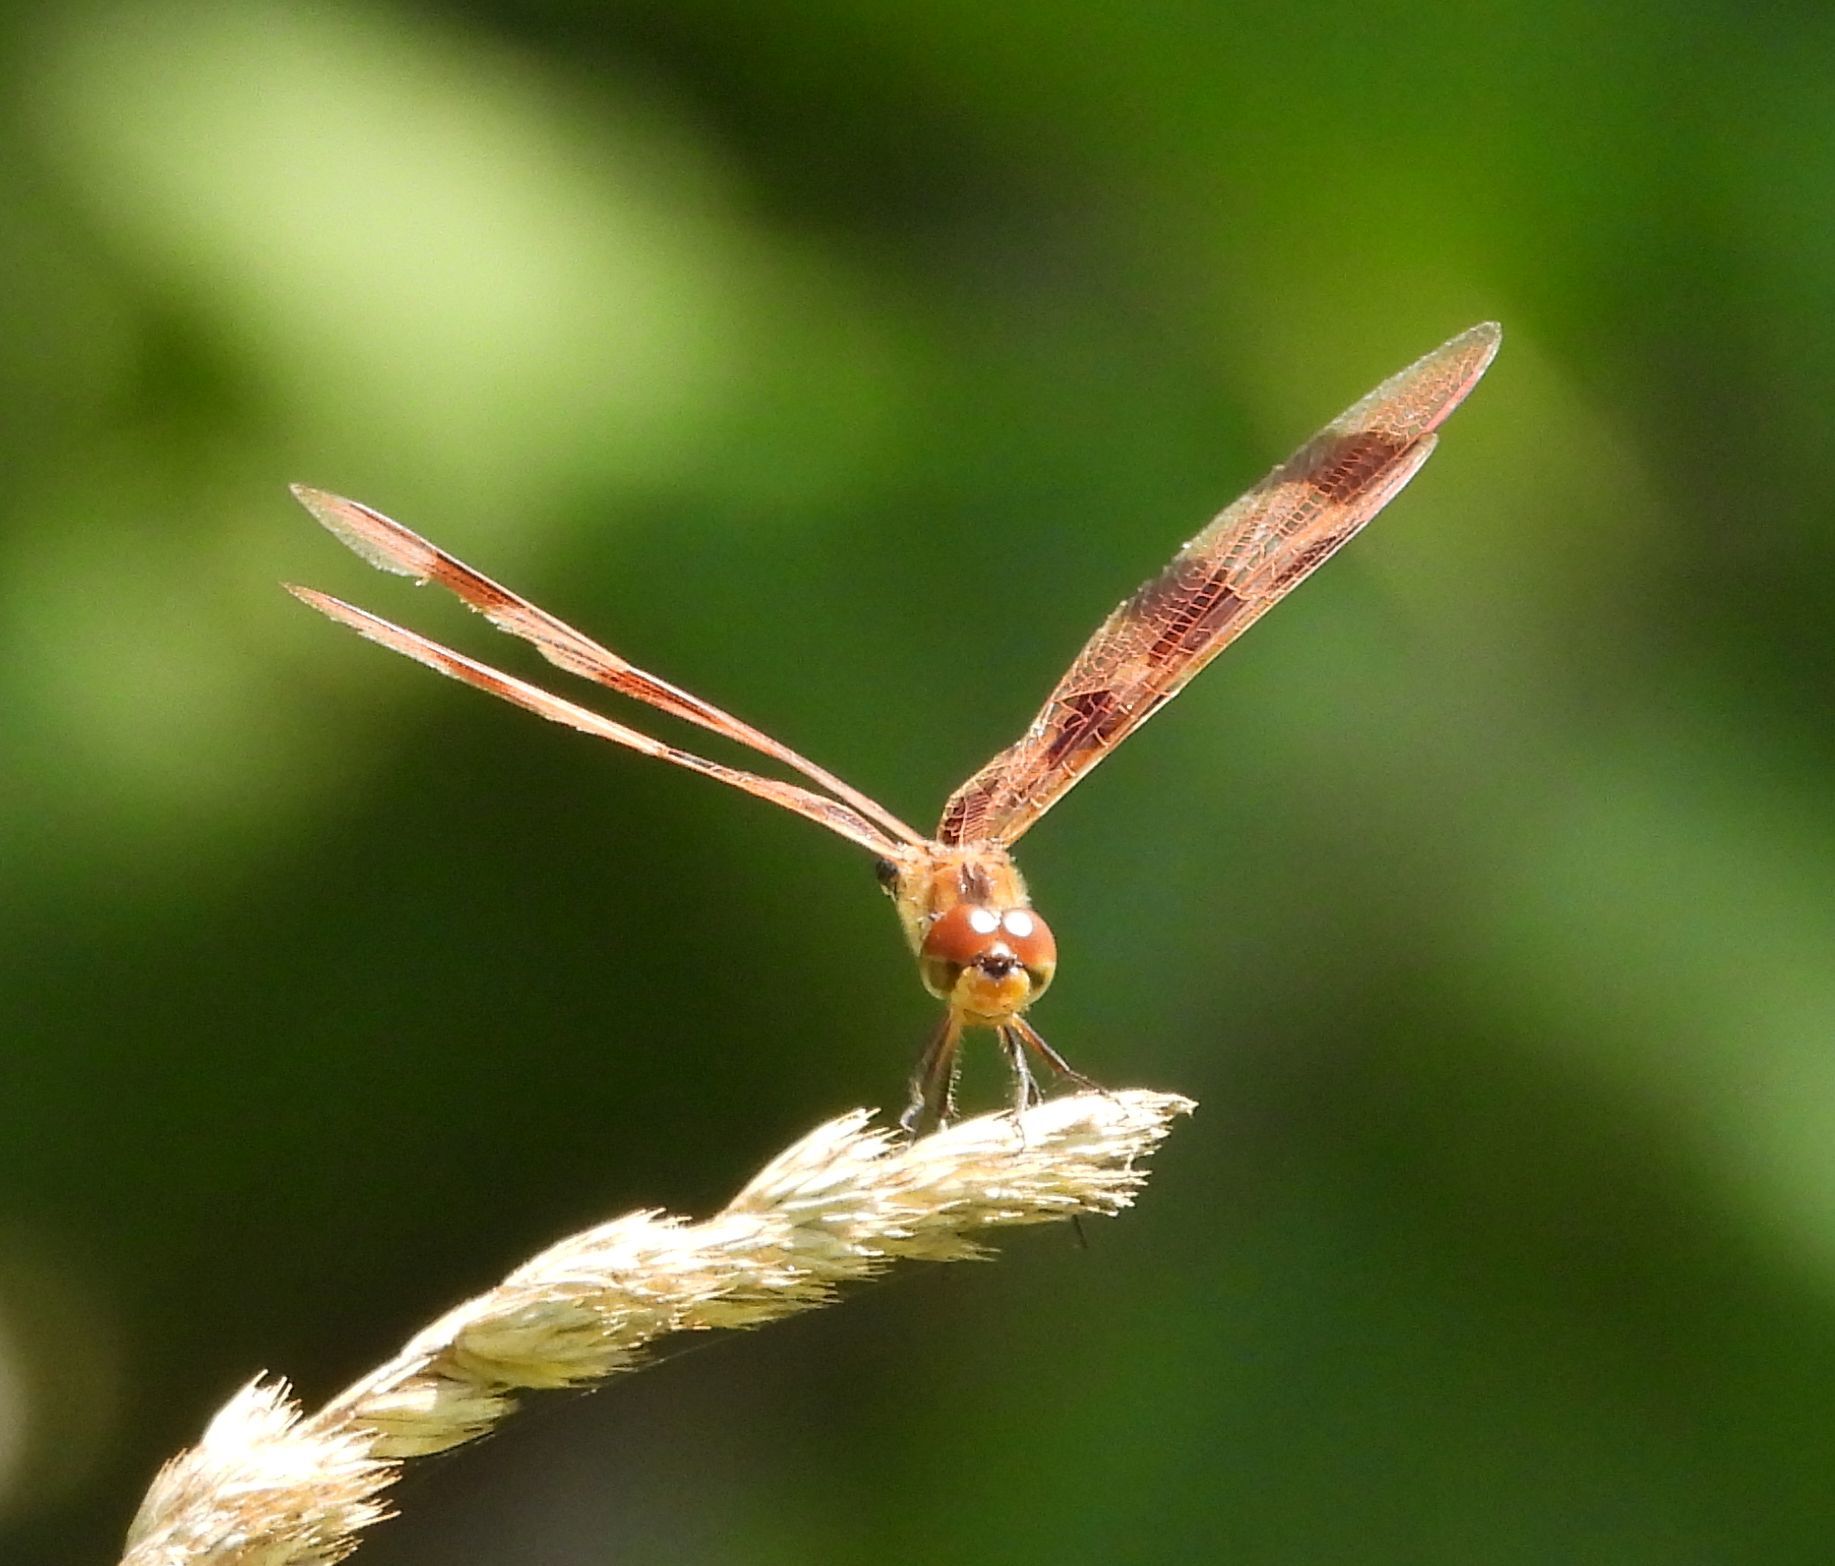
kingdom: Animalia
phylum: Arthropoda
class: Insecta
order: Odonata
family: Libellulidae
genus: Celithemis
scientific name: Celithemis eponina
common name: Halloween pennant
